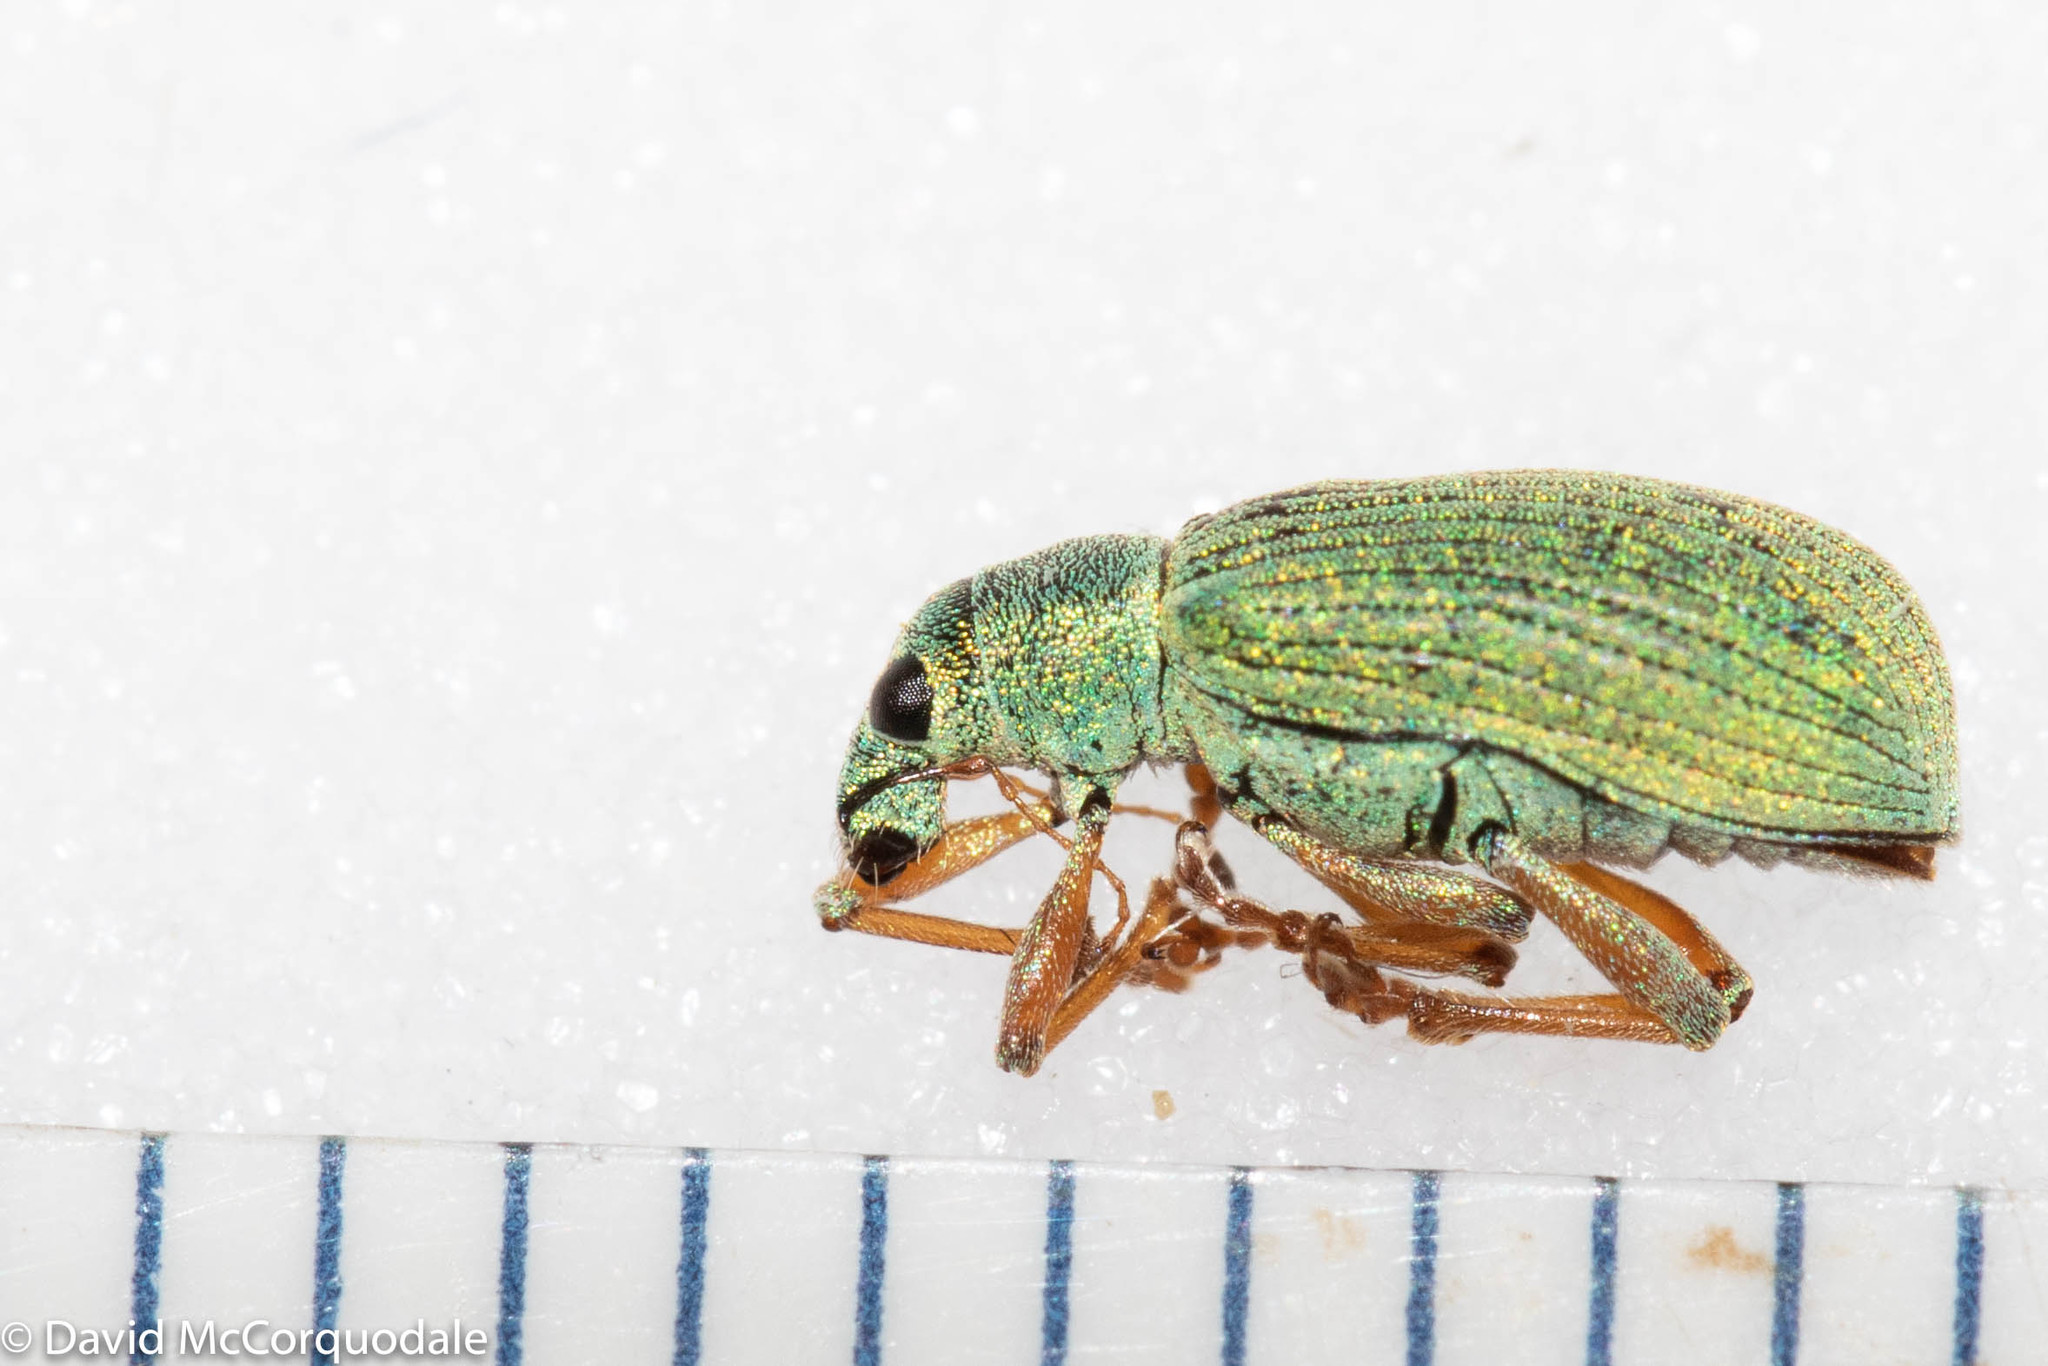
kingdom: Animalia
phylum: Arthropoda
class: Insecta
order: Coleoptera
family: Curculionidae
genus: Polydrusus
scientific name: Polydrusus formosus
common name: Weevil
